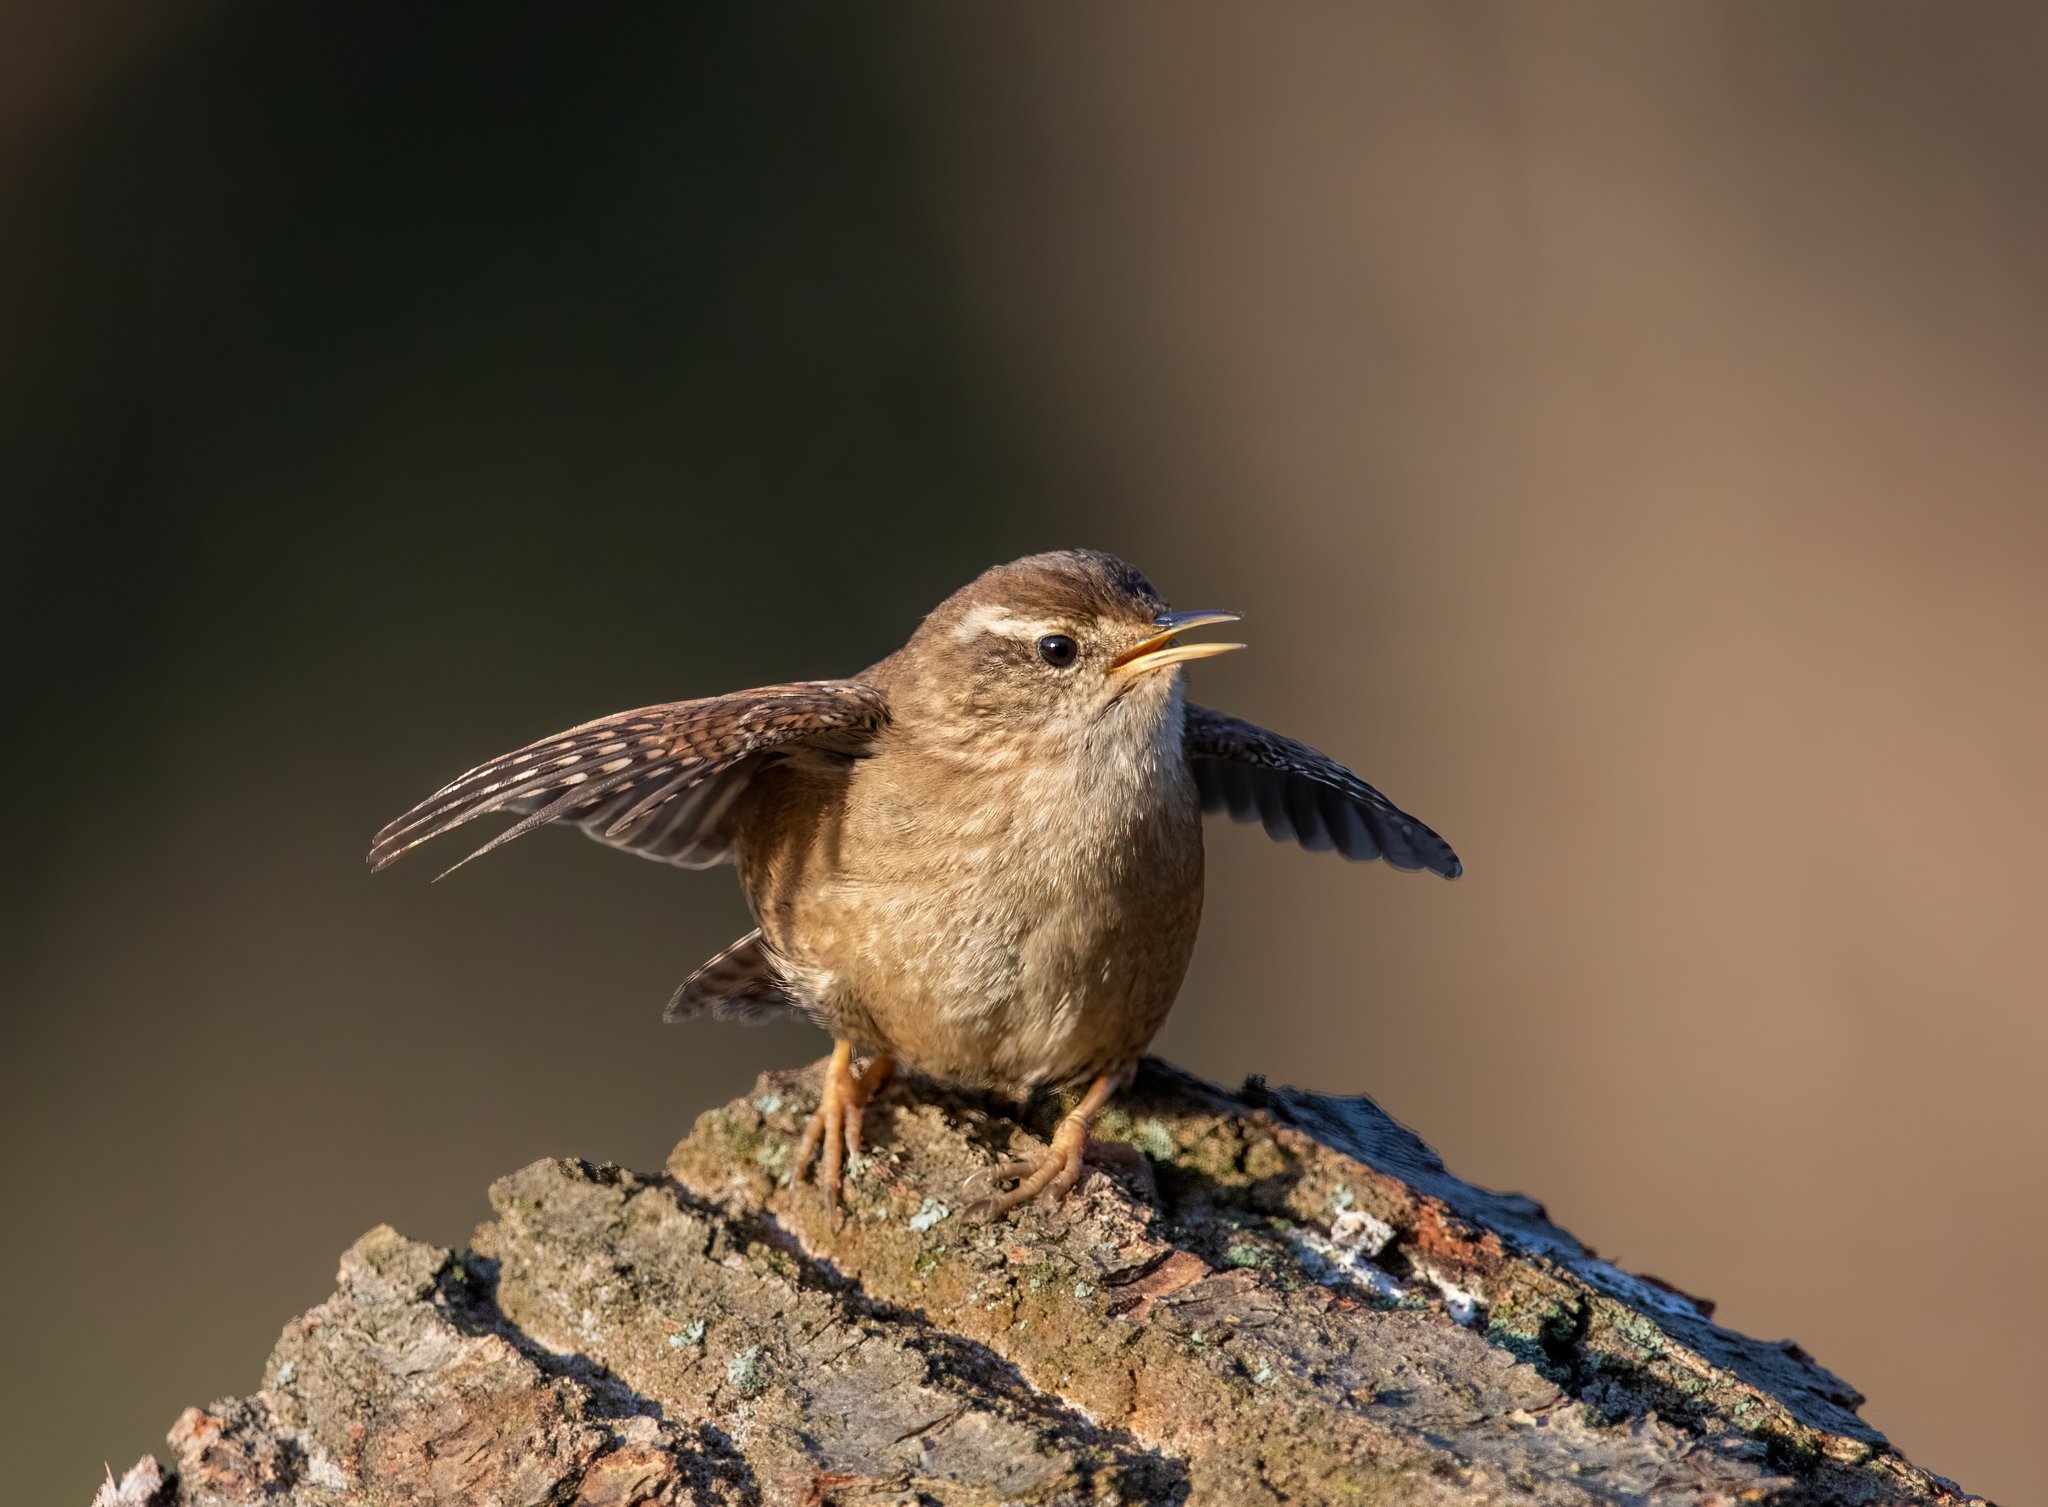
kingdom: Animalia
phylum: Chordata
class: Aves
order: Passeriformes
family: Troglodytidae
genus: Troglodytes
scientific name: Troglodytes troglodytes
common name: Eurasian wren
